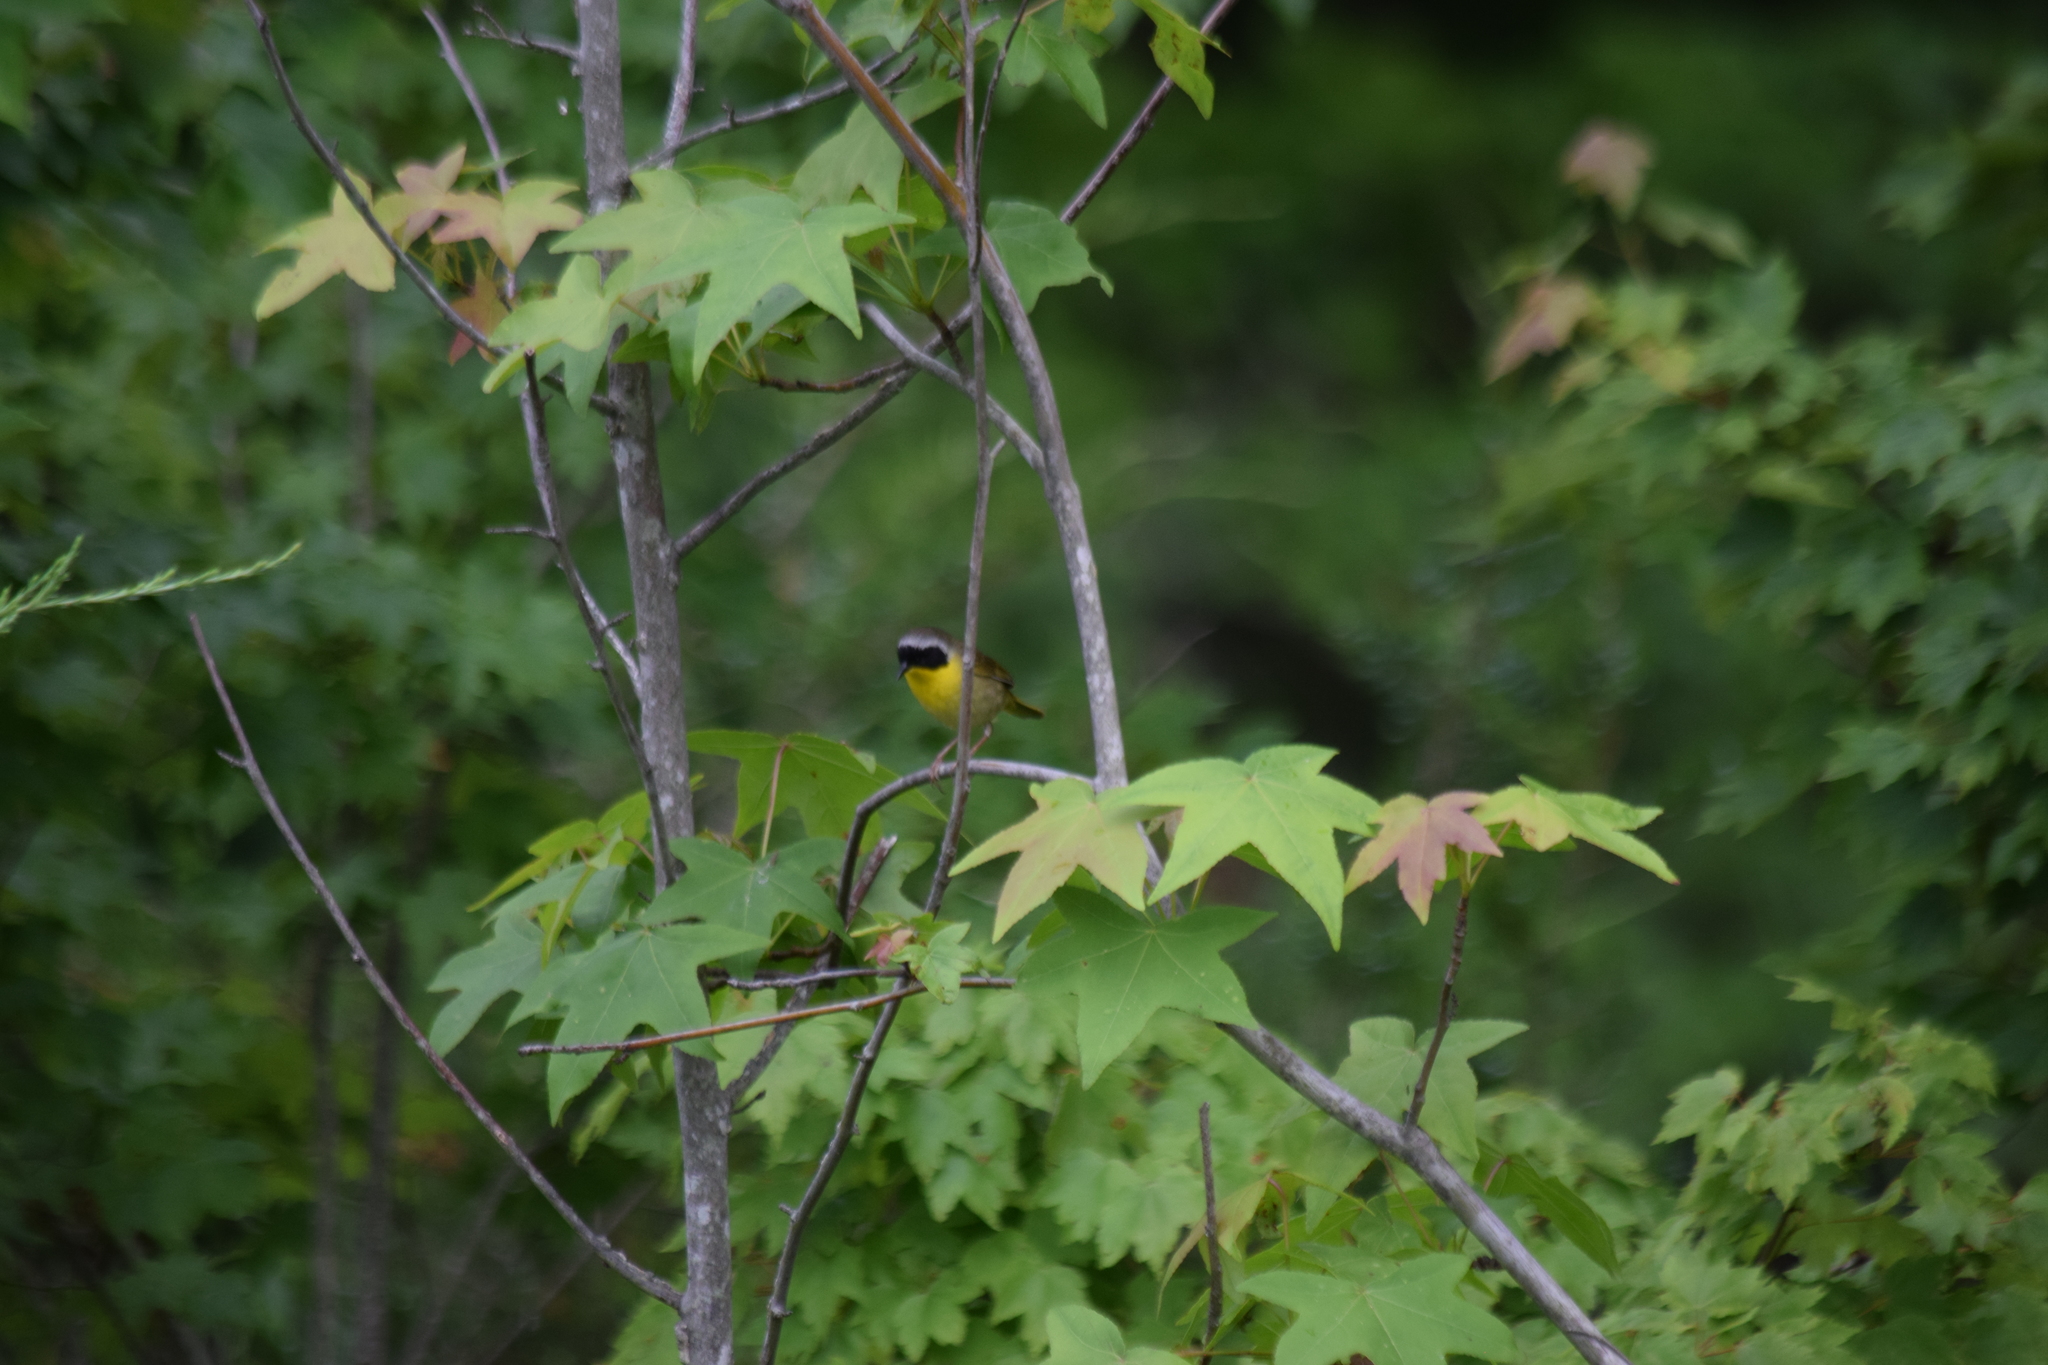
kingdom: Animalia
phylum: Chordata
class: Aves
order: Passeriformes
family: Parulidae
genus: Geothlypis
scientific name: Geothlypis trichas
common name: Common yellowthroat
